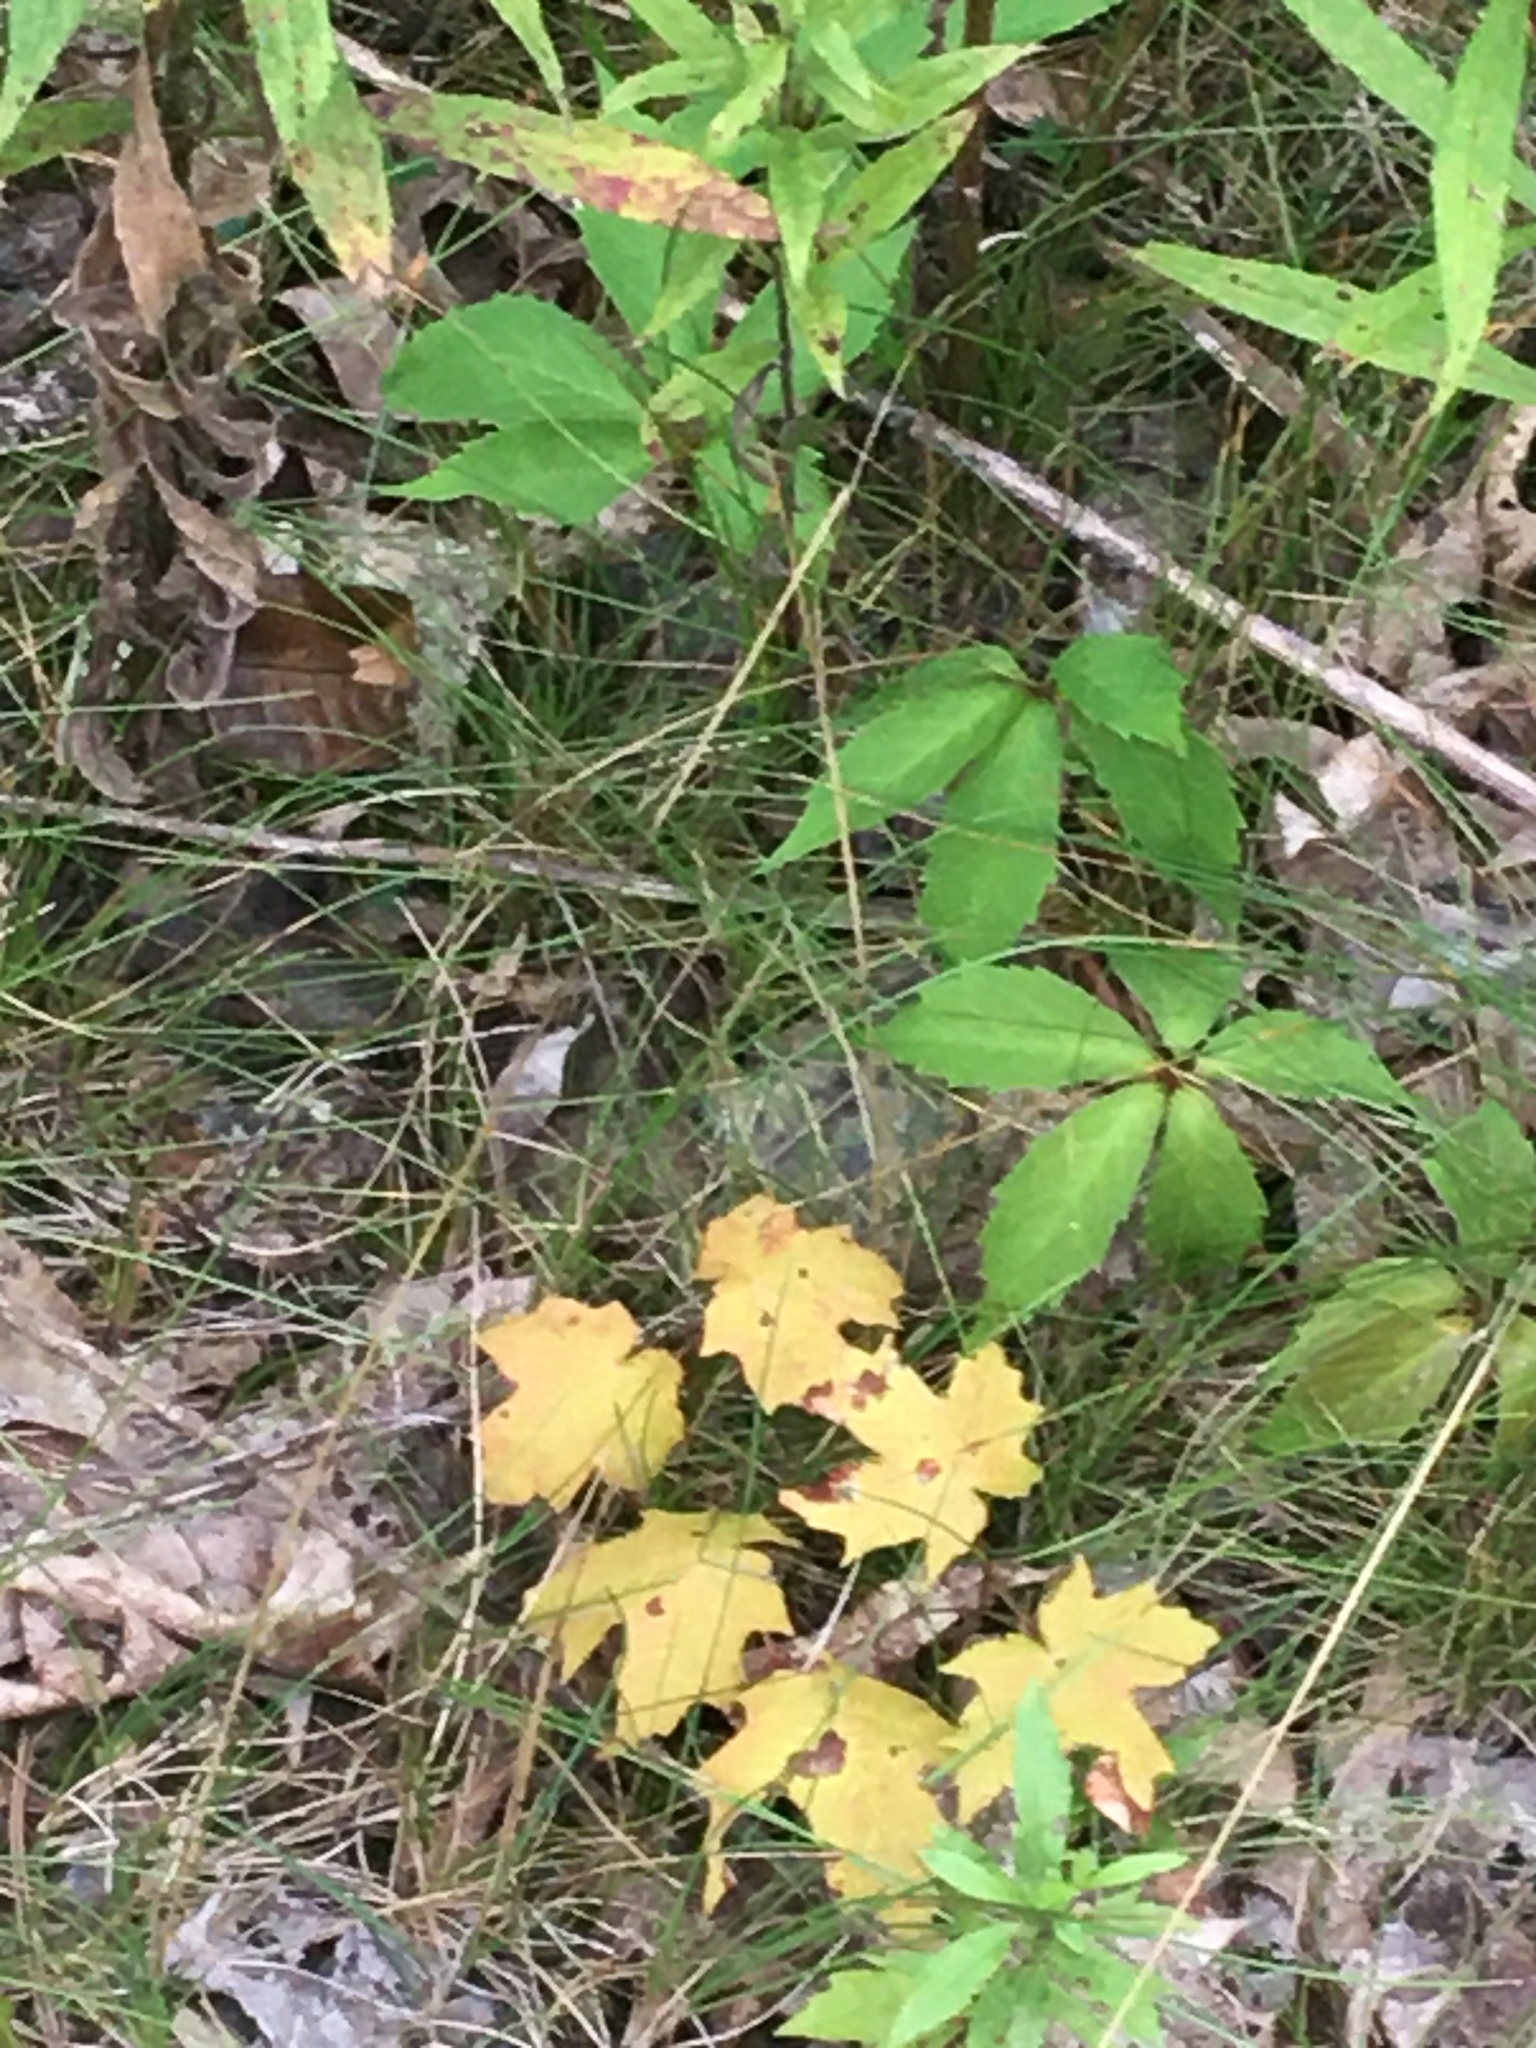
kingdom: Plantae
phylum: Tracheophyta
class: Magnoliopsida
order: Vitales
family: Vitaceae
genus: Parthenocissus
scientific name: Parthenocissus quinquefolia
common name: Virginia-creeper
